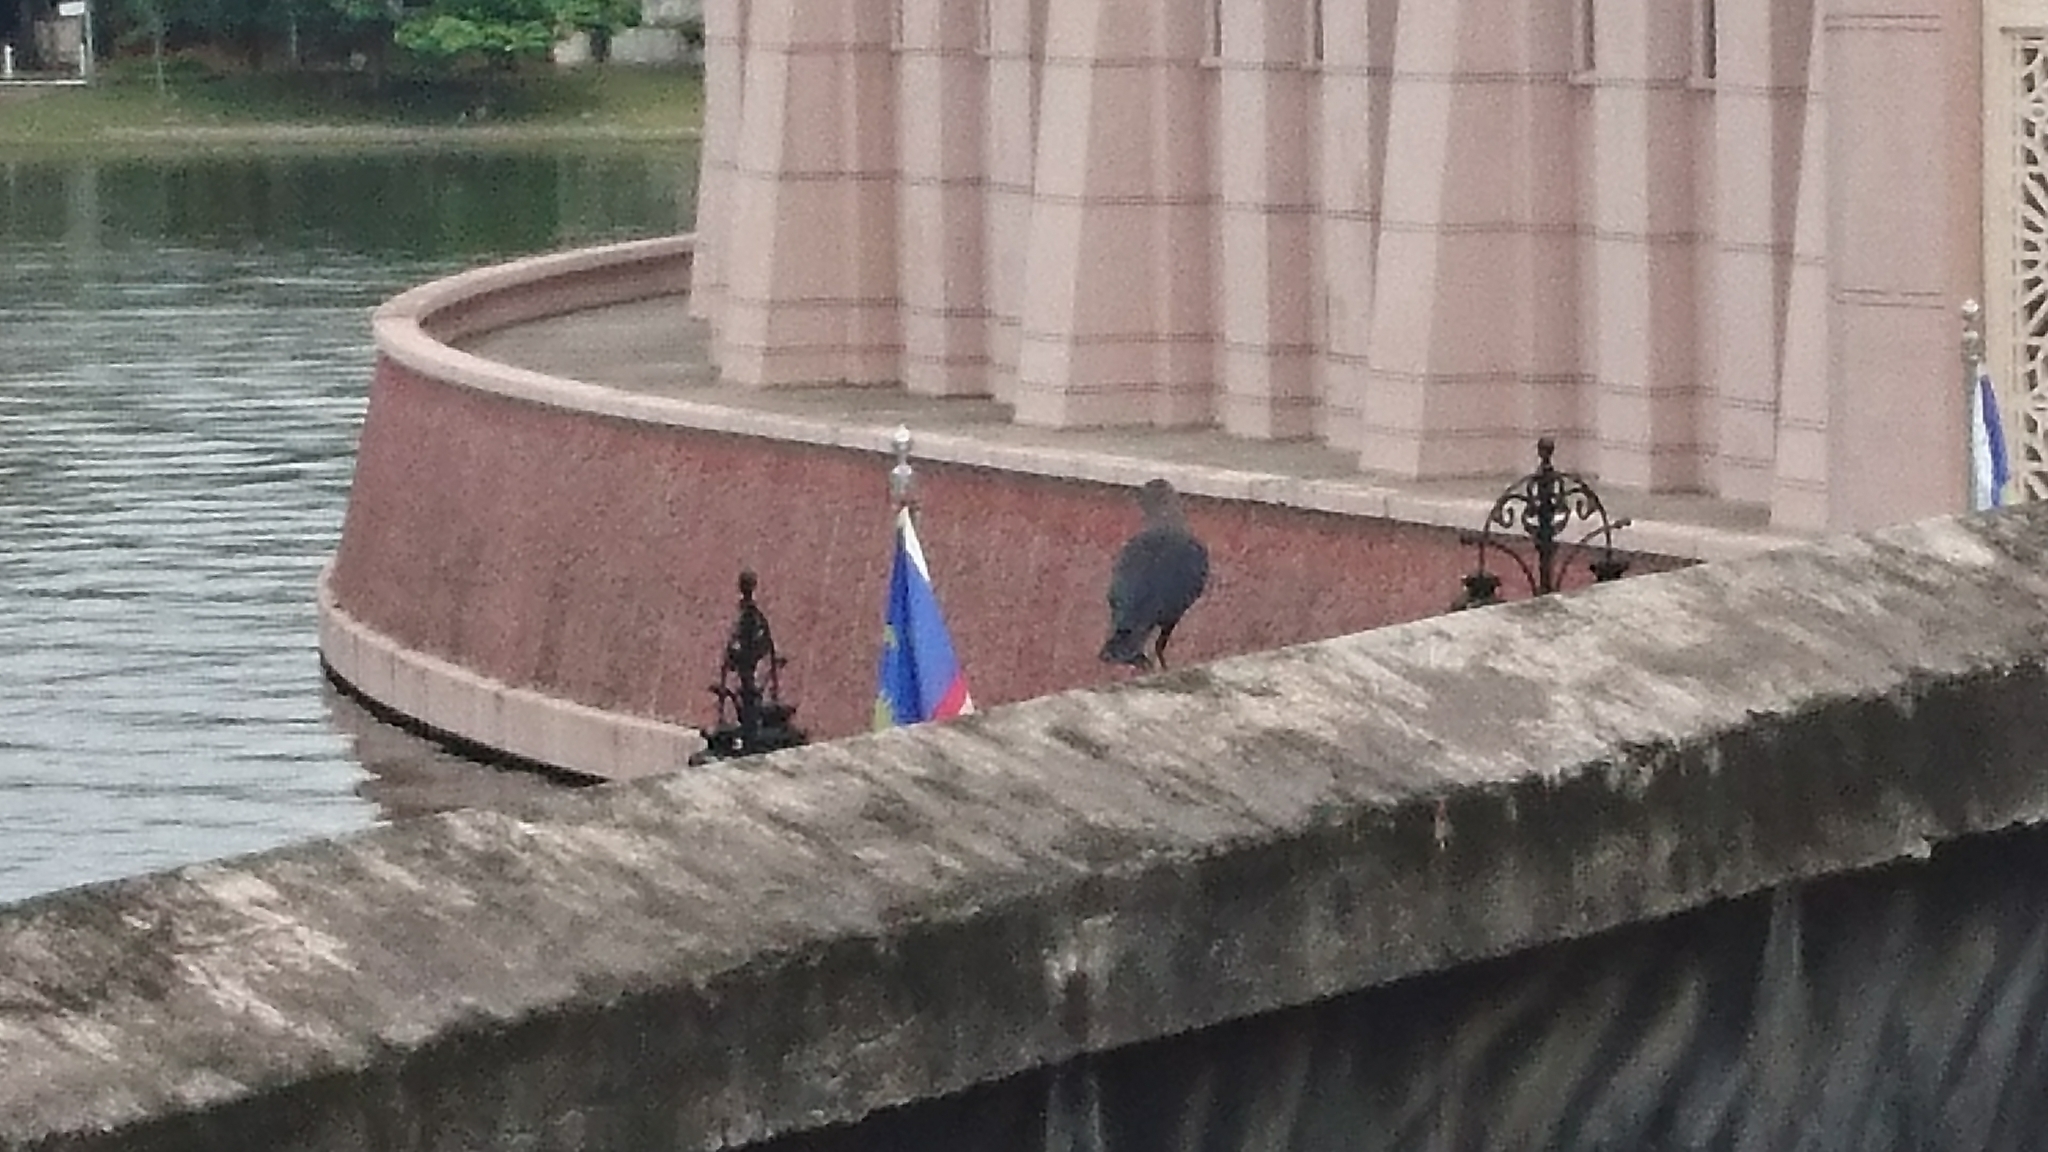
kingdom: Animalia
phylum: Chordata
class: Aves
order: Passeriformes
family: Corvidae
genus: Corvus
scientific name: Corvus splendens
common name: House crow
